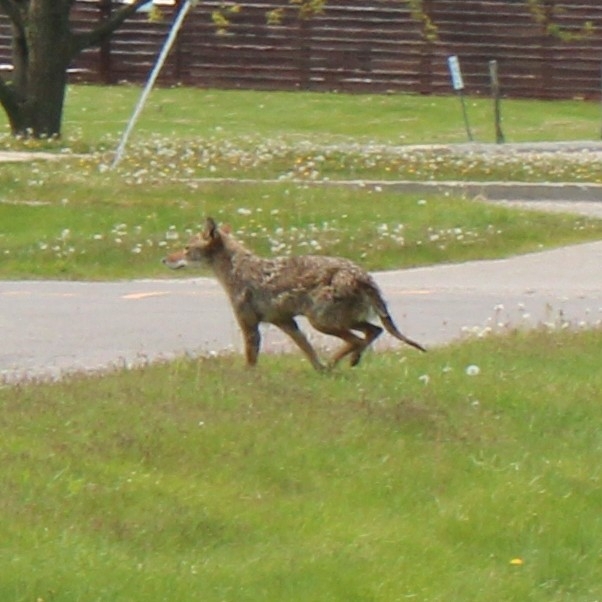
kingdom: Animalia
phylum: Chordata
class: Mammalia
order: Carnivora
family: Canidae
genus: Canis
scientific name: Canis latrans
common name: Coyote
